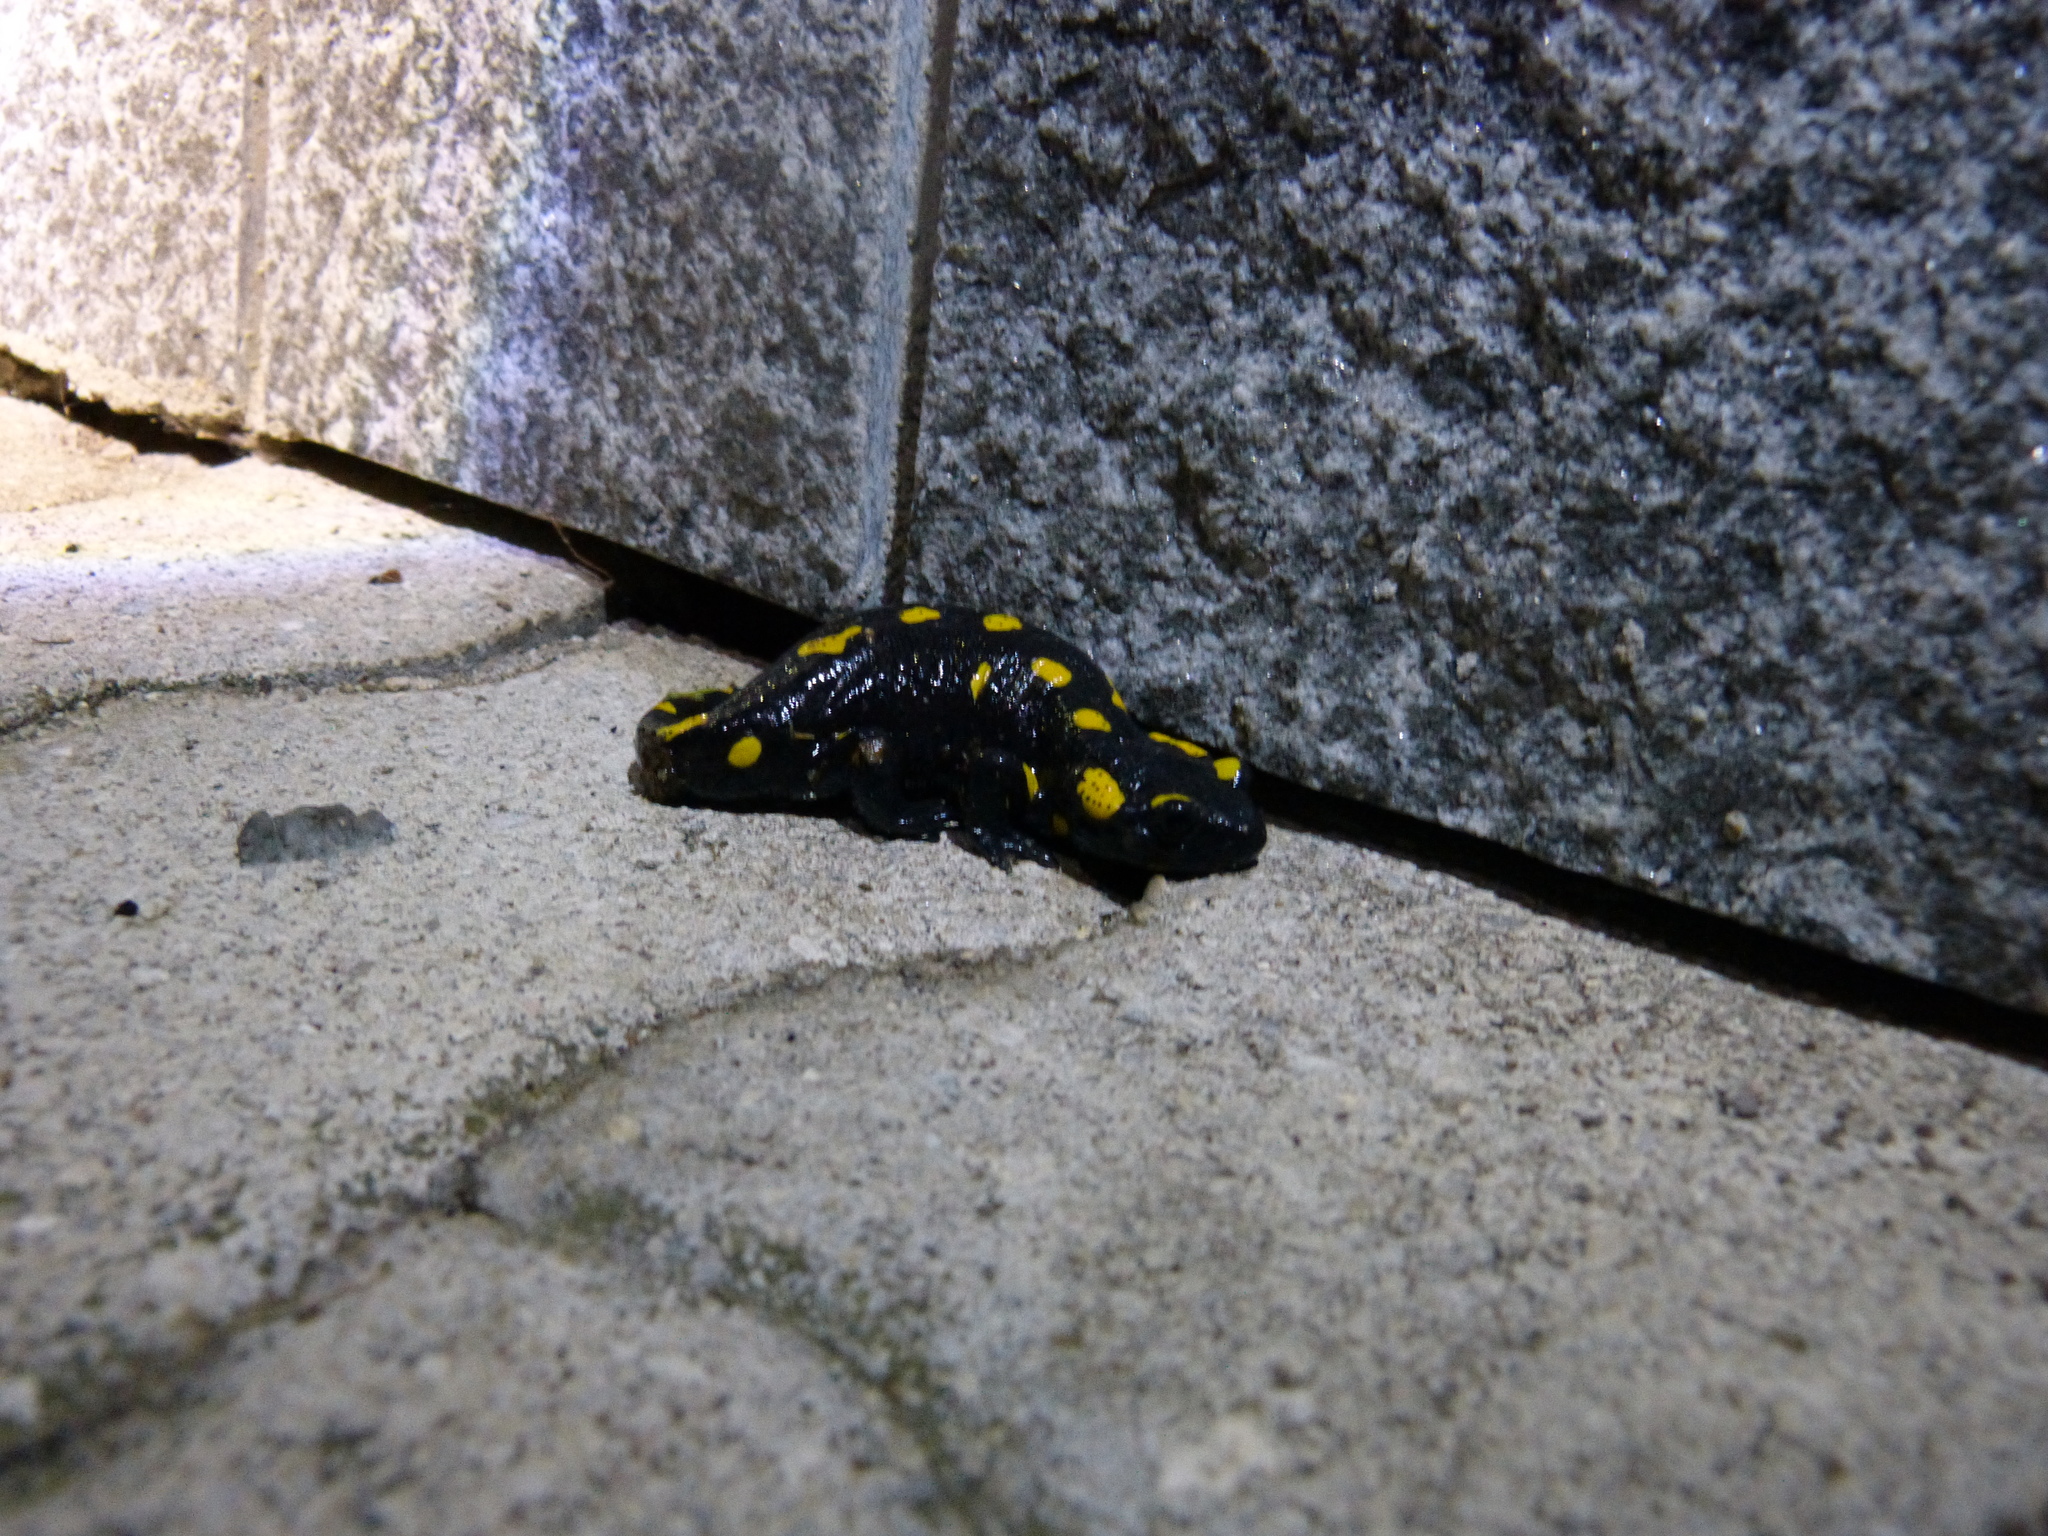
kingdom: Animalia
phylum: Chordata
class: Amphibia
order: Caudata
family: Salamandridae
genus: Salamandra
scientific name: Salamandra salamandra
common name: Fire salamander
